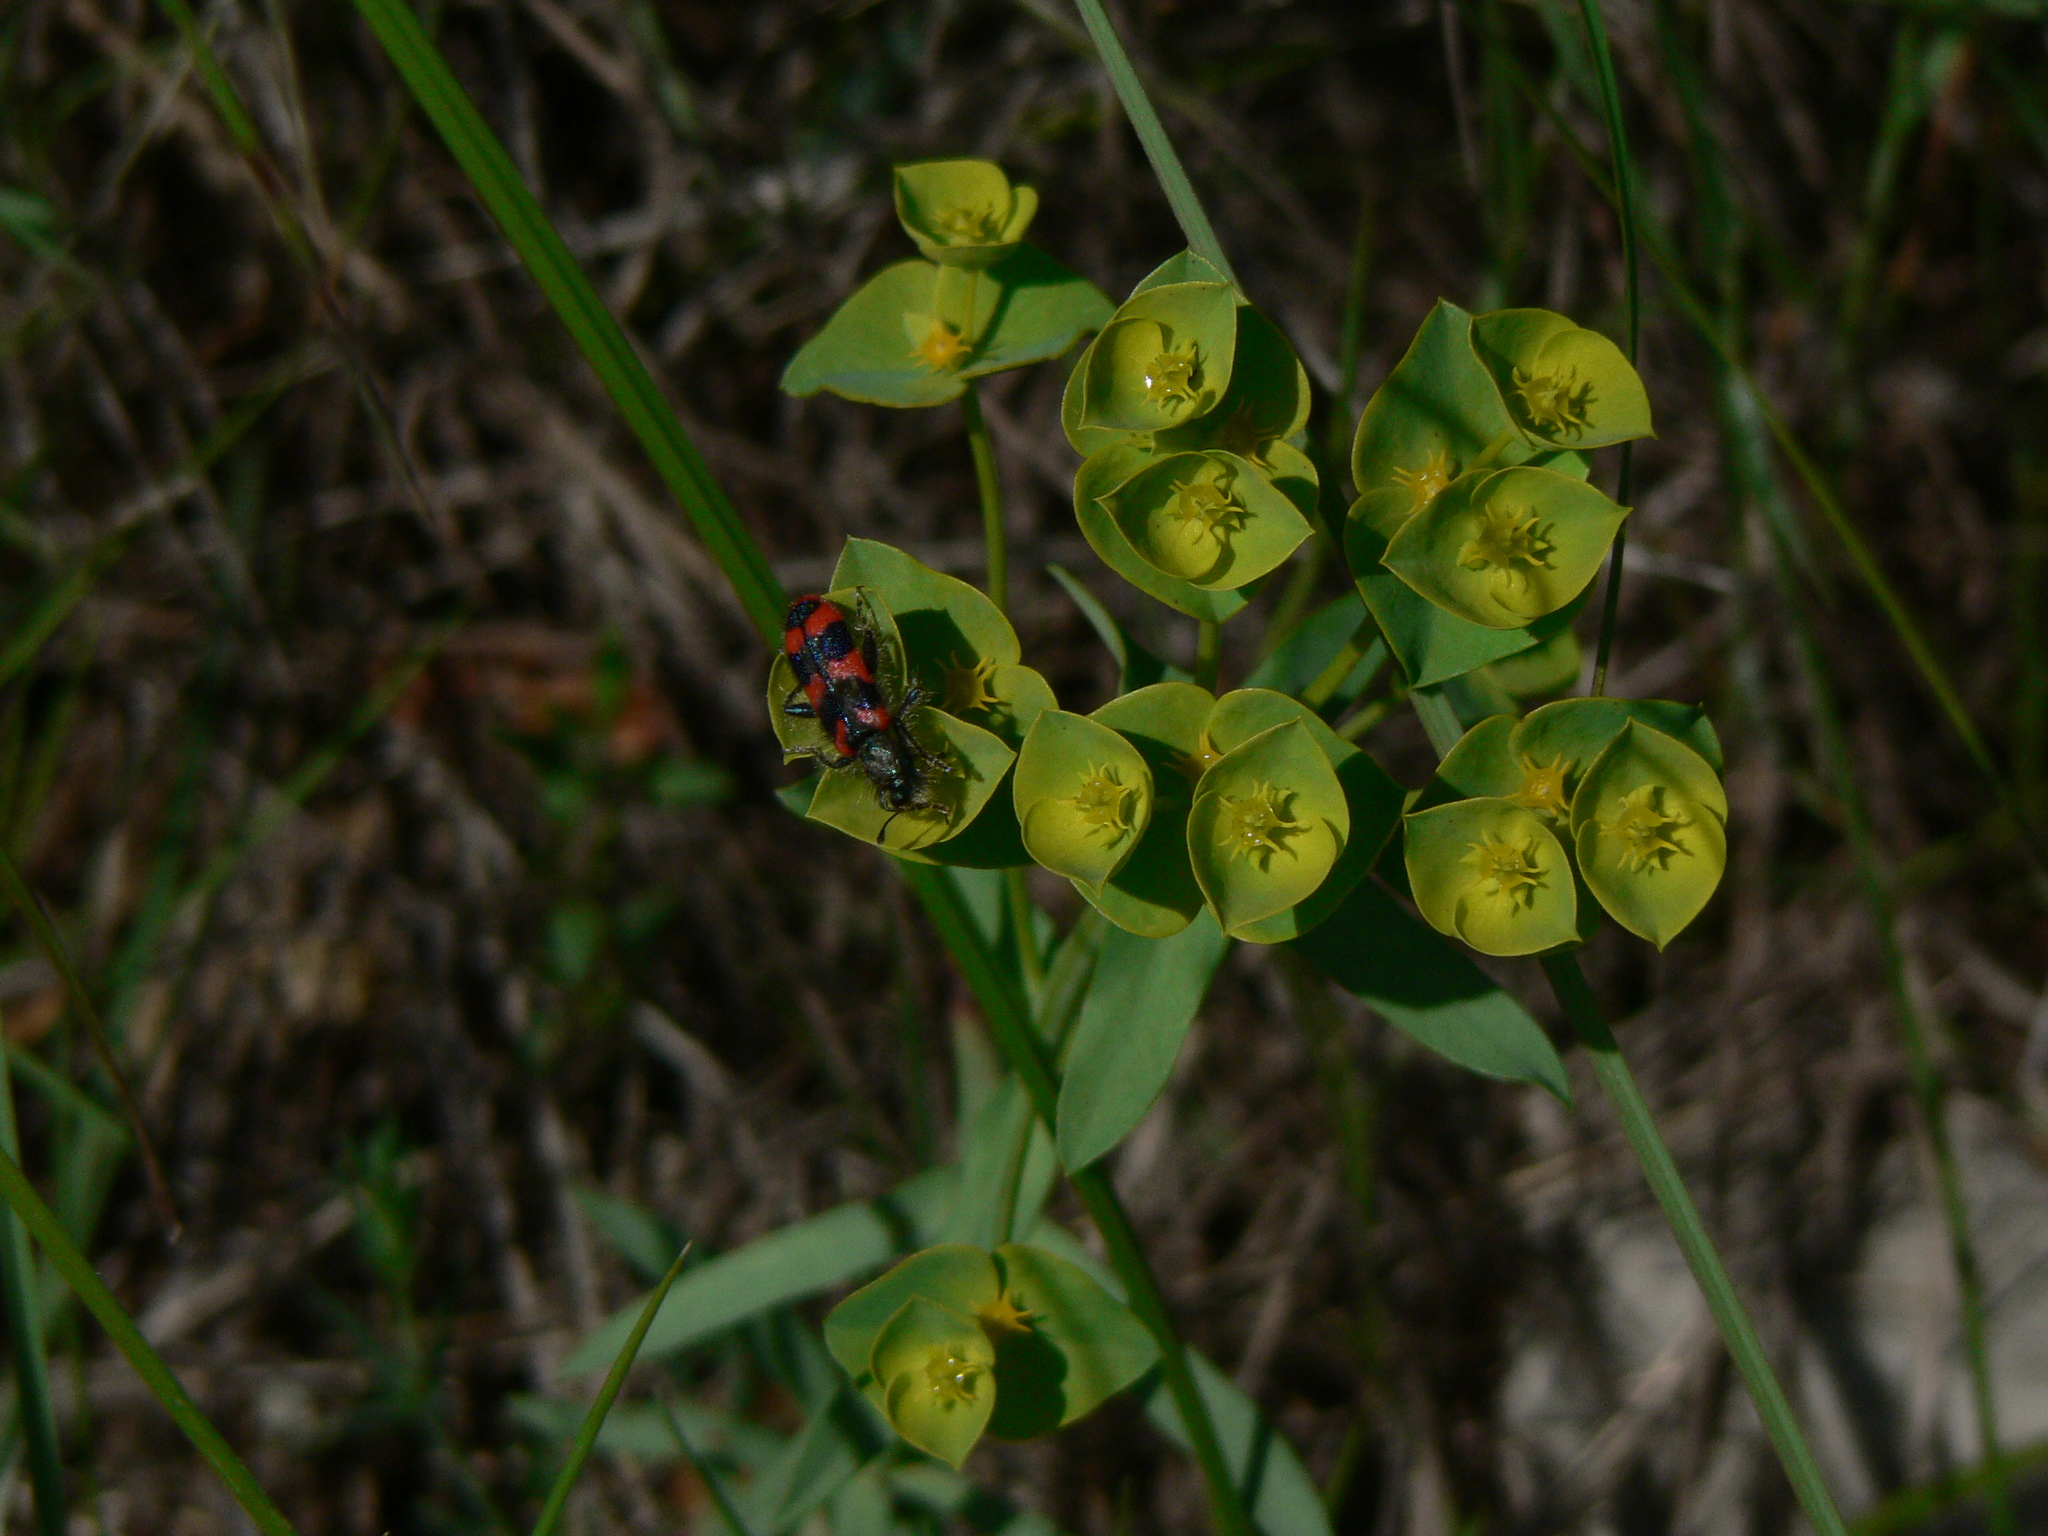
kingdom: Animalia
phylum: Arthropoda
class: Insecta
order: Coleoptera
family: Cleridae
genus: Trichodes
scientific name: Trichodes alvearius
